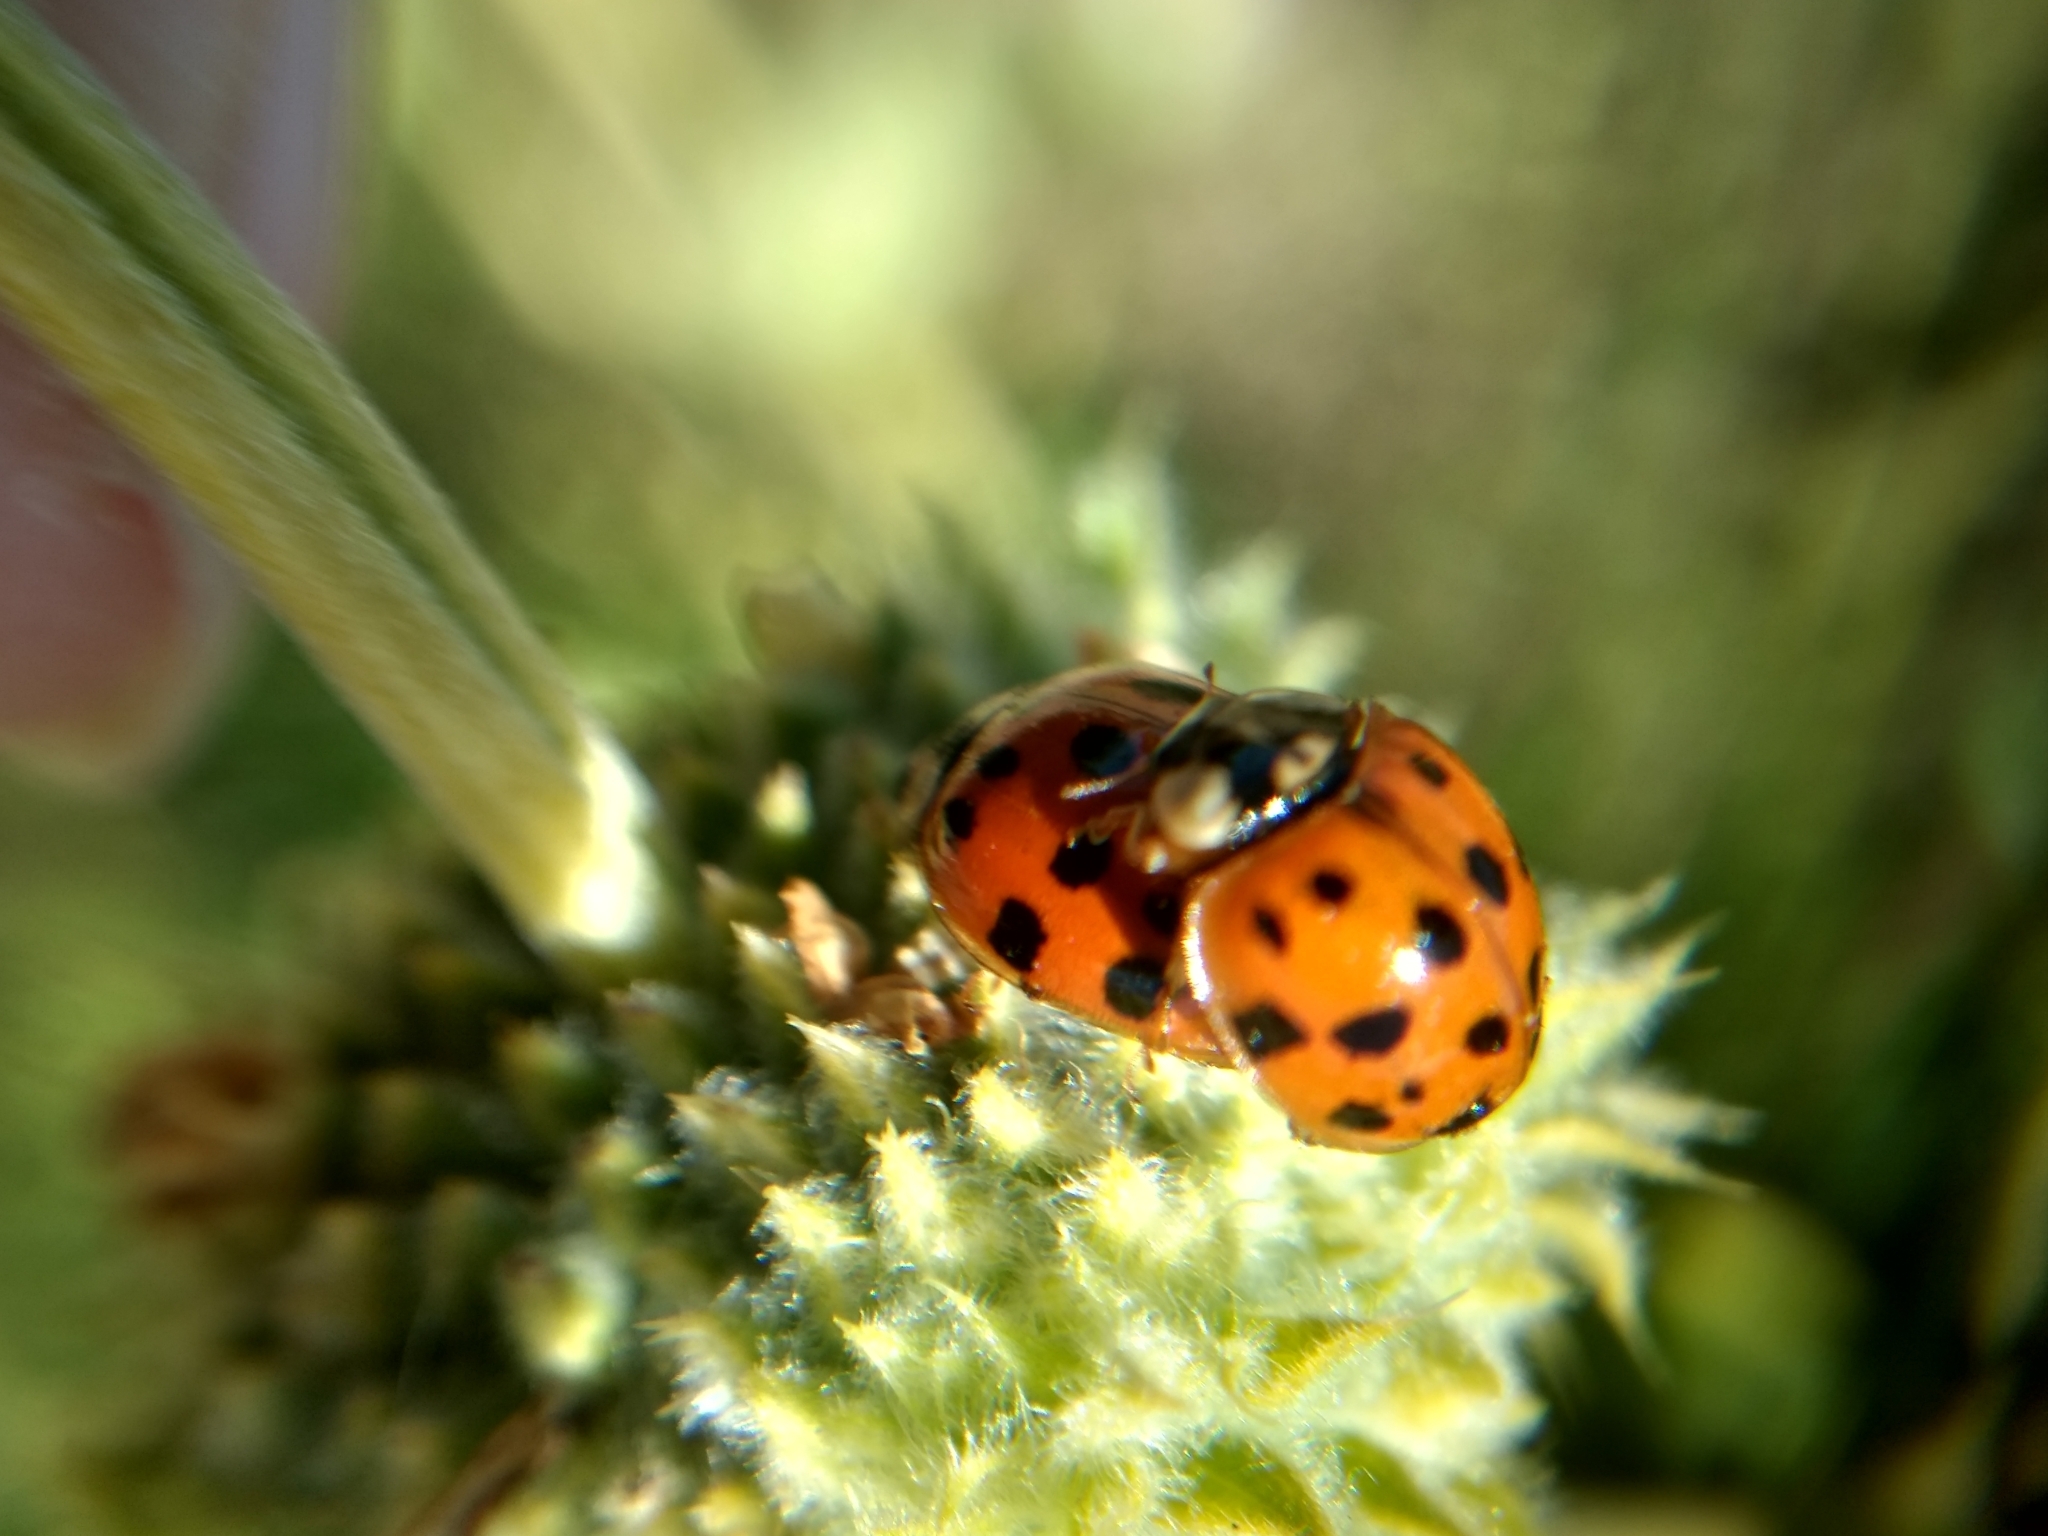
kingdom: Animalia
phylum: Arthropoda
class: Insecta
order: Coleoptera
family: Coccinellidae
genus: Harmonia
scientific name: Harmonia axyridis
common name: Harlequin ladybird
